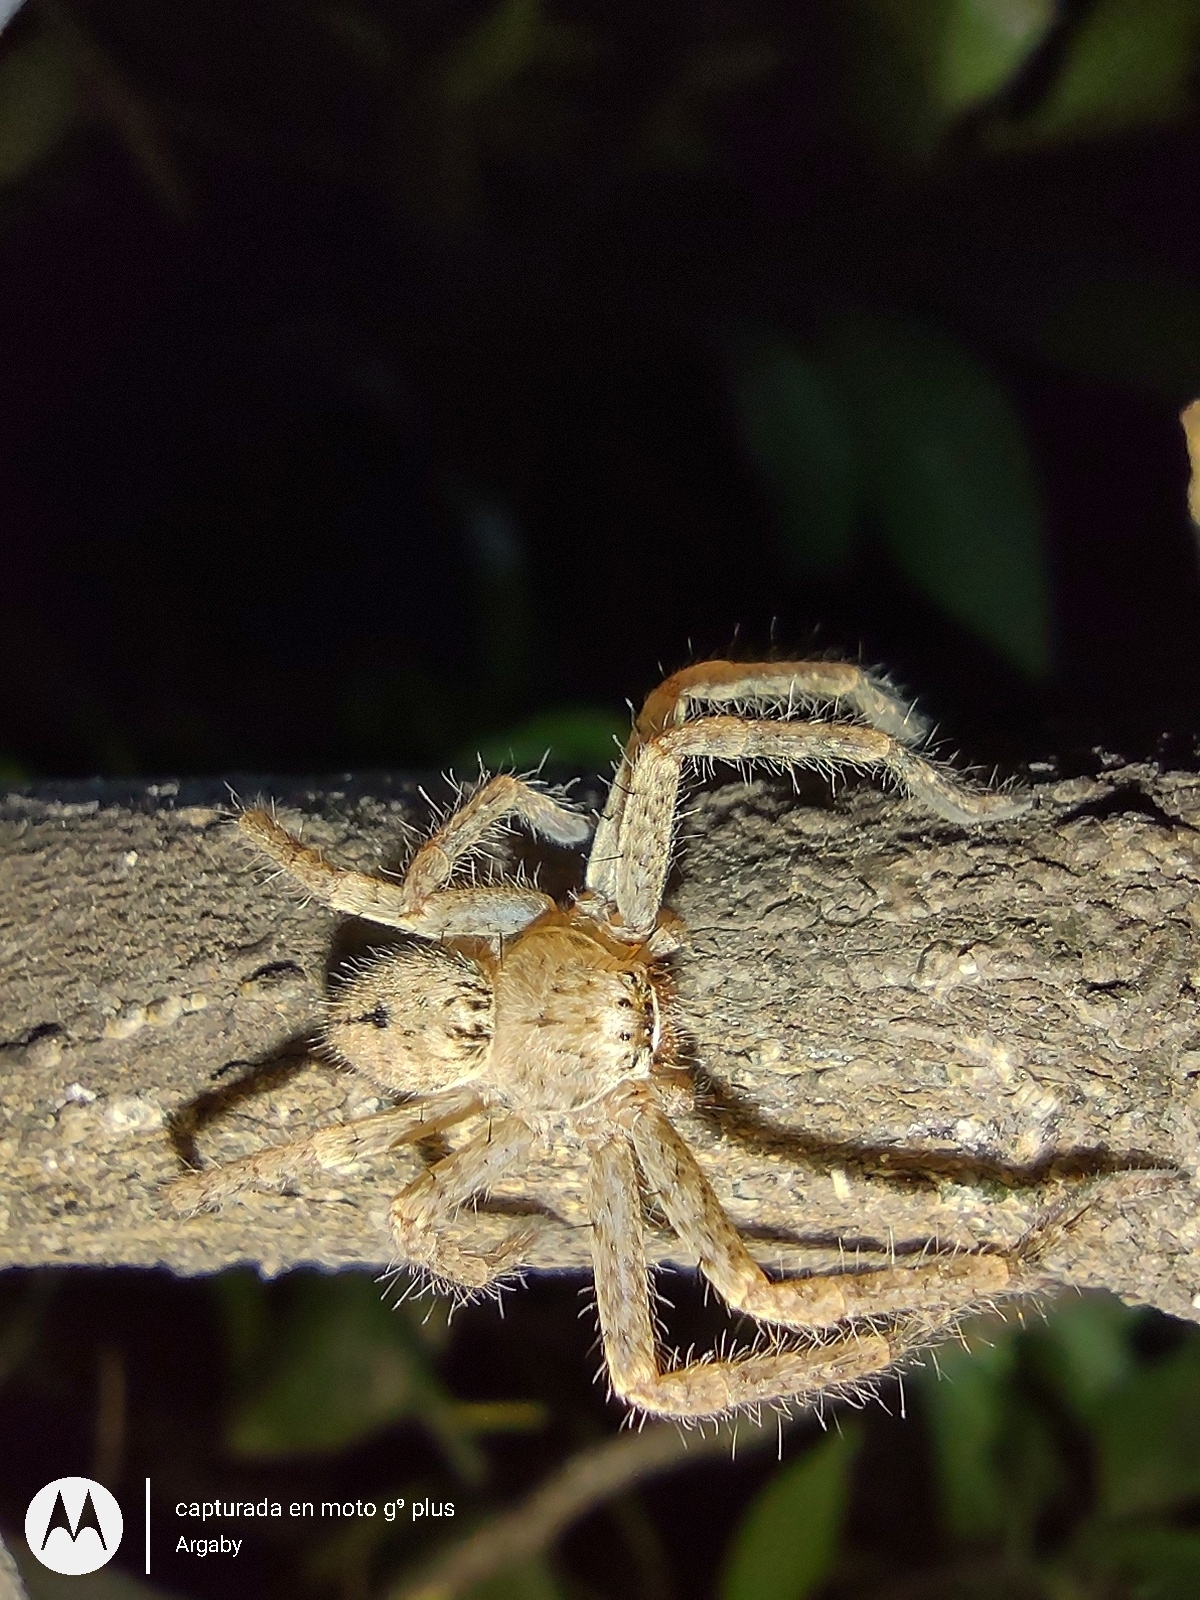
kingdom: Animalia
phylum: Arthropoda
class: Arachnida
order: Araneae
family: Sparassidae
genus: Polybetes
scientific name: Polybetes rapidus
